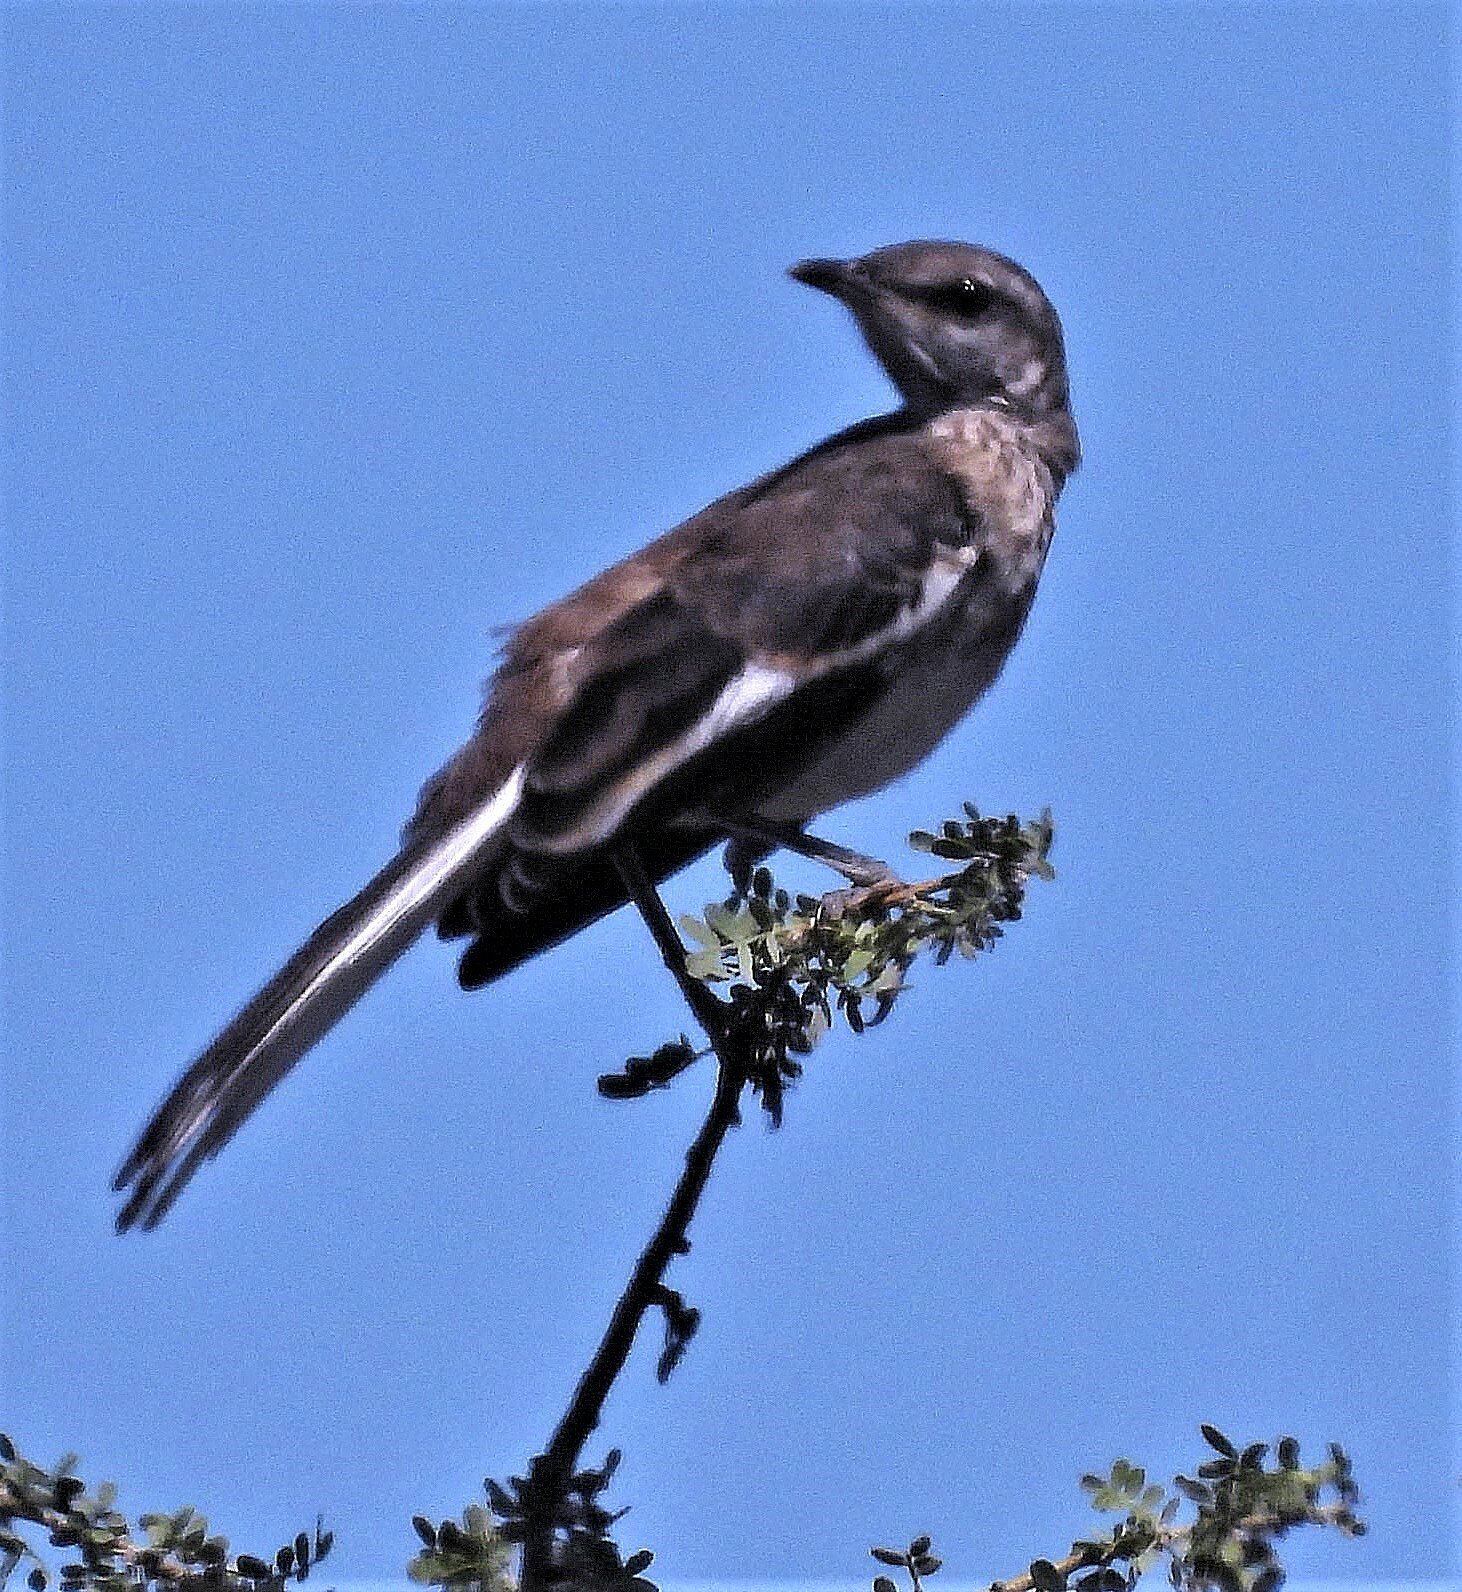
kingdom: Animalia
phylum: Chordata
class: Aves
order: Passeriformes
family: Mimidae
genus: Mimus
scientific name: Mimus triurus
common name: White-banded mockingbird
